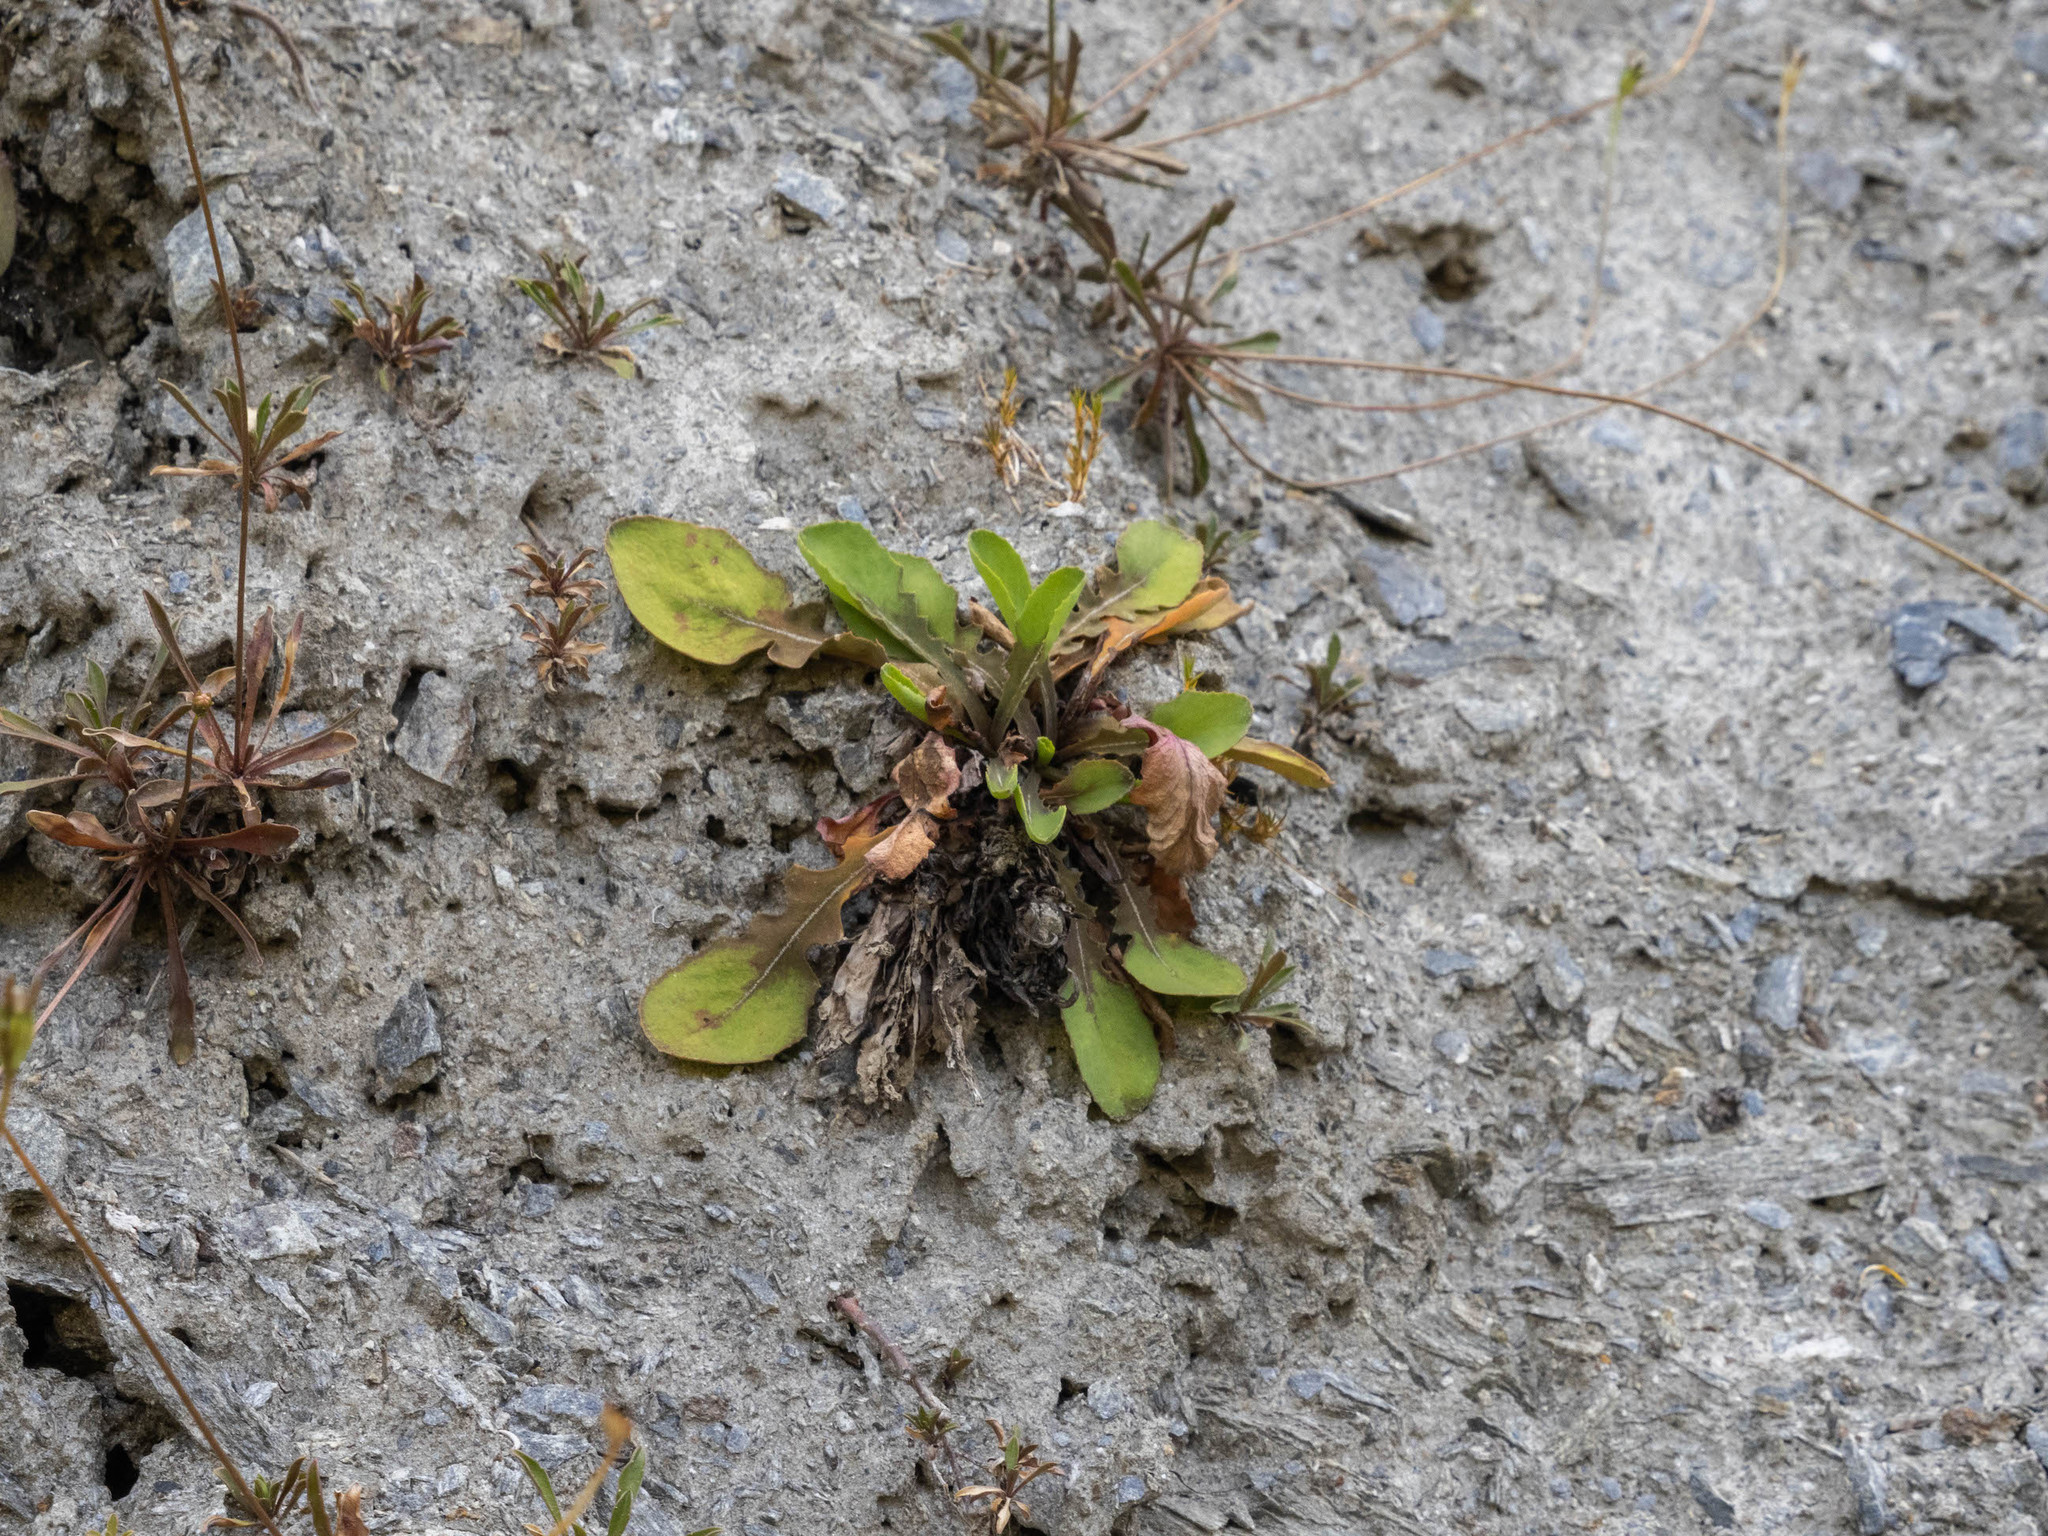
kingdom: Plantae
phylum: Tracheophyta
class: Magnoliopsida
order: Asterales
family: Asteraceae
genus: Sonchus
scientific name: Sonchus novae-zelandiae
